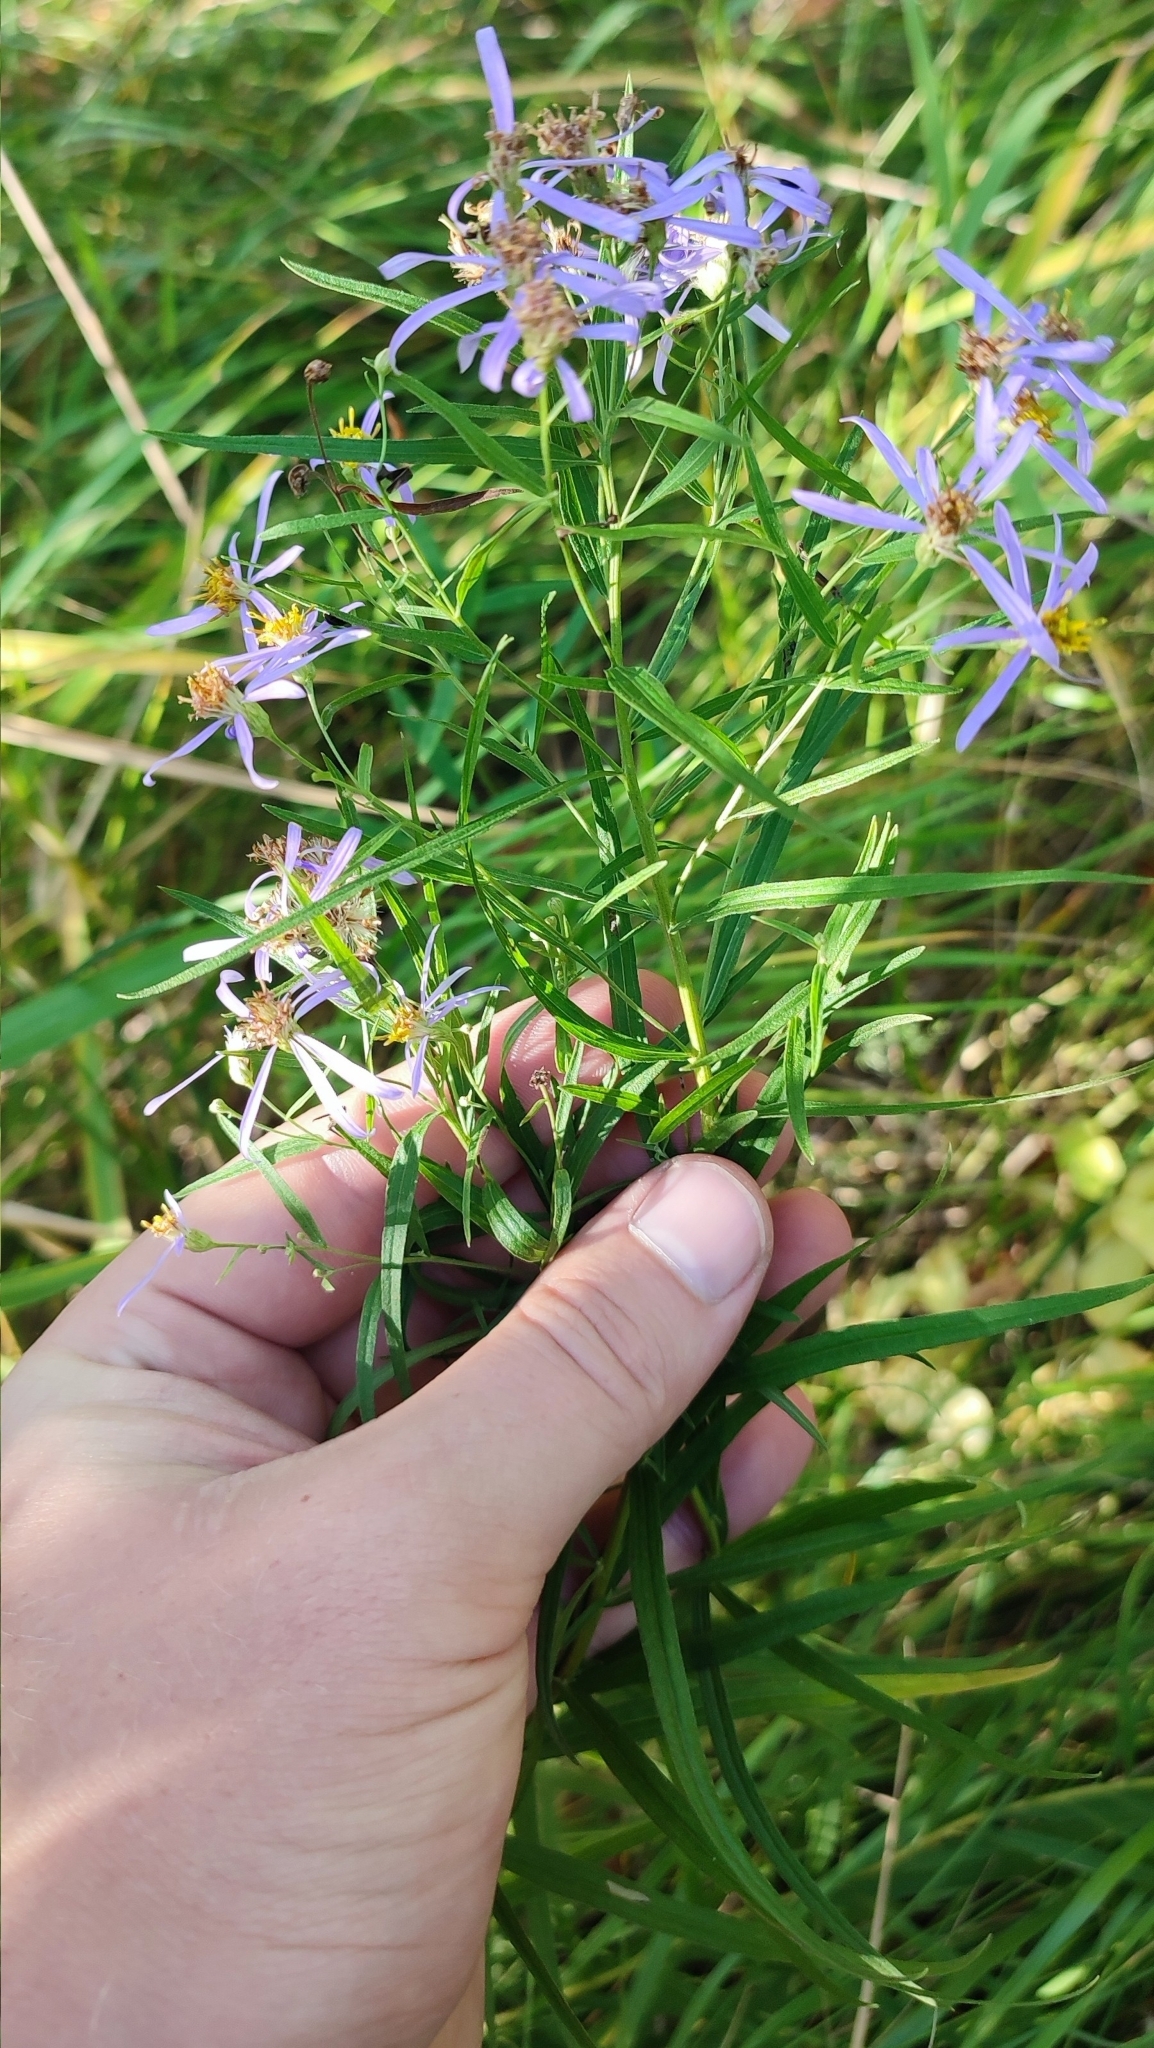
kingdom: Plantae
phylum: Tracheophyta
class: Magnoliopsida
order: Asterales
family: Asteraceae
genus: Galatella
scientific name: Galatella sedifolia
